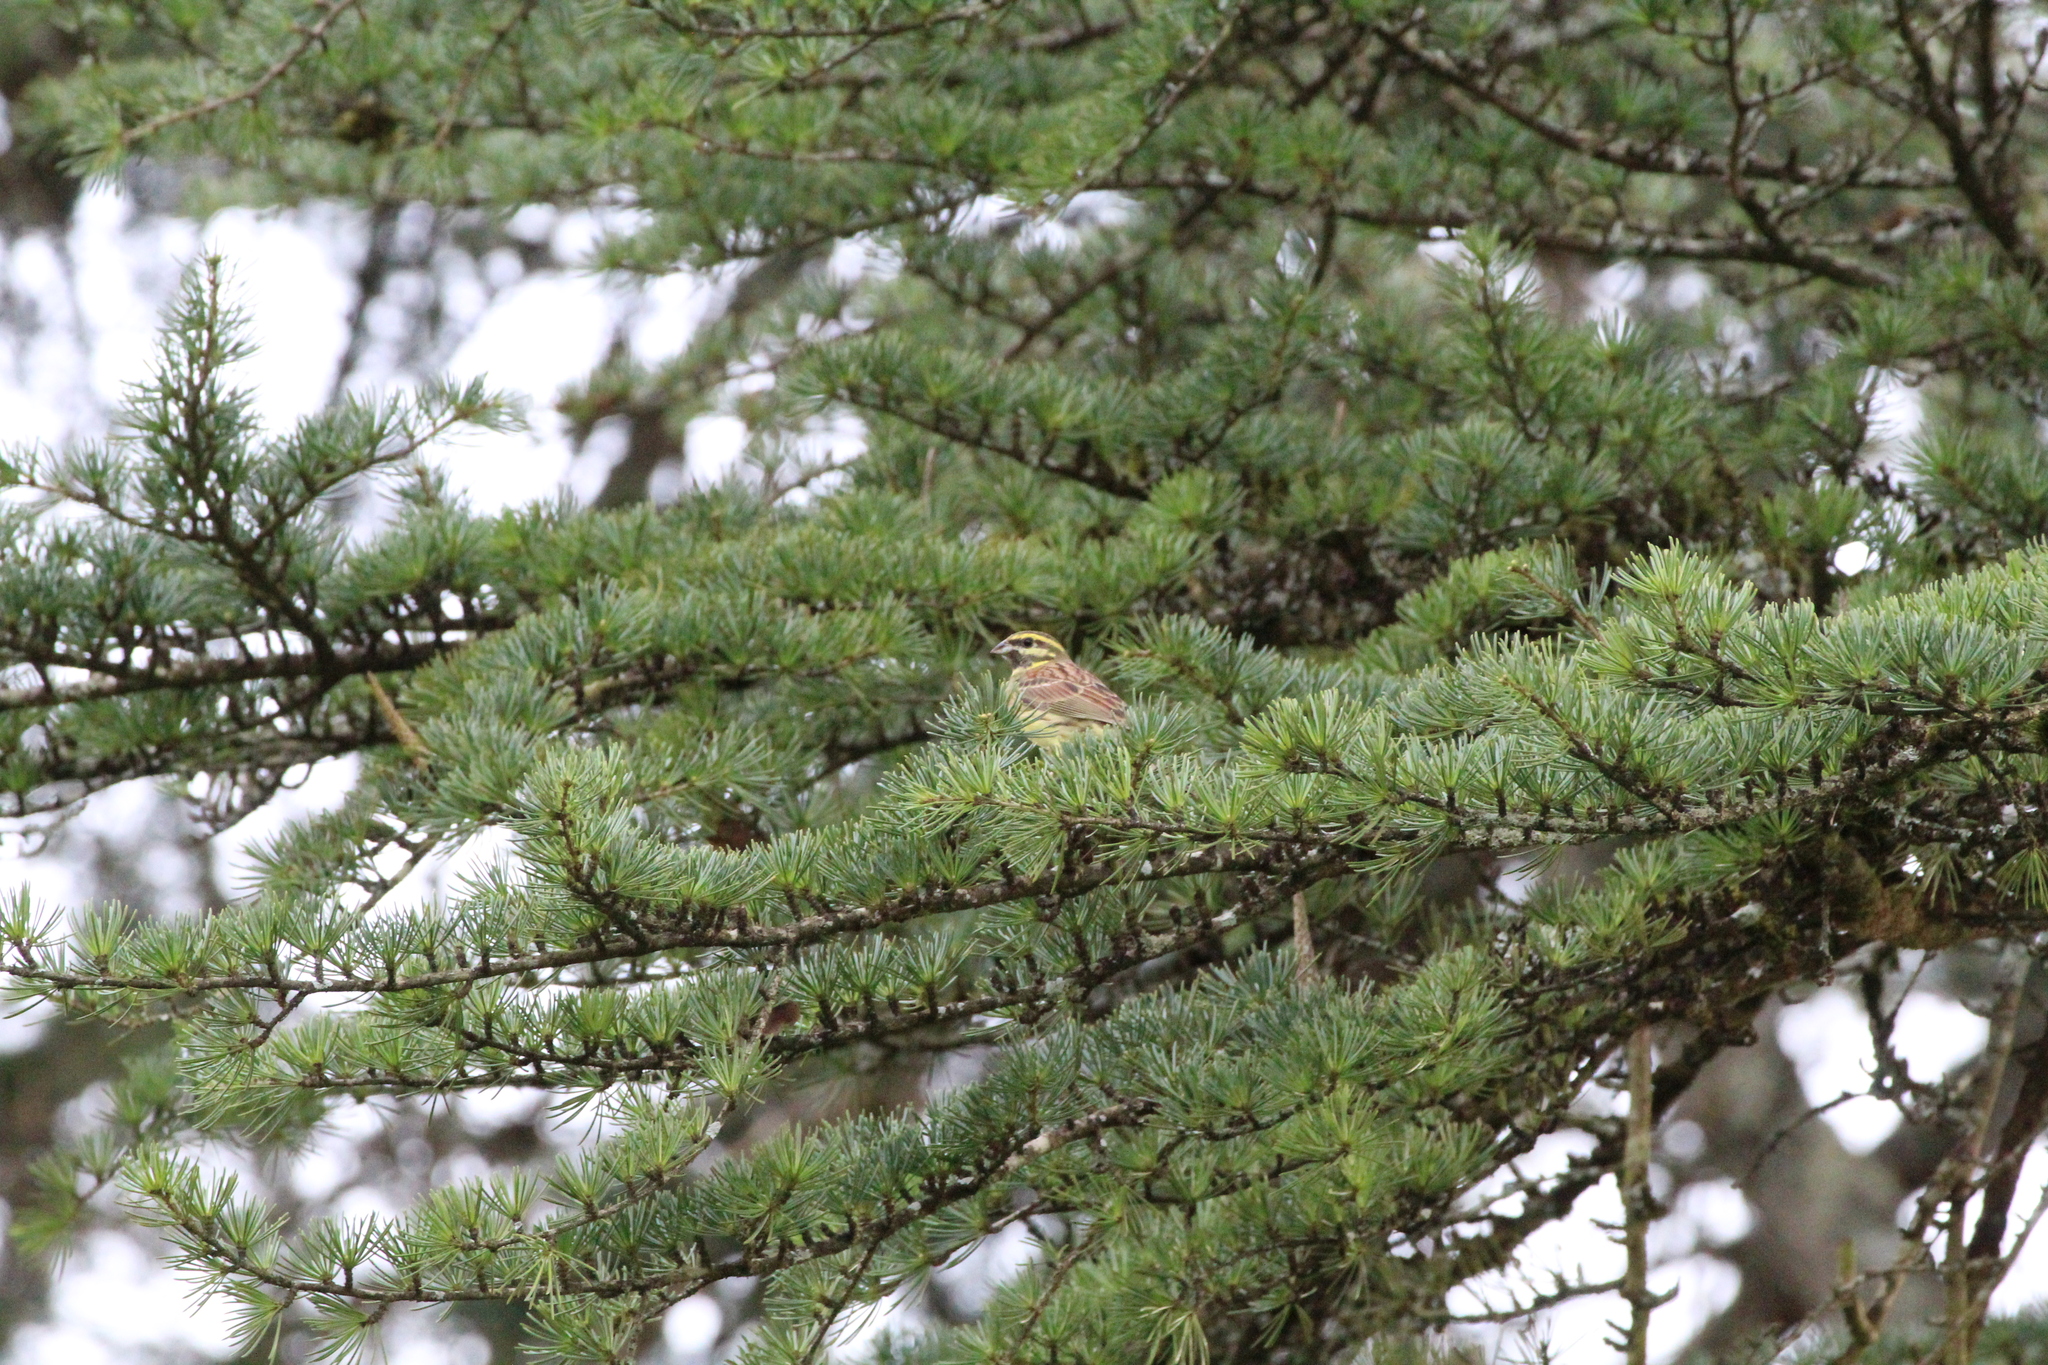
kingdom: Animalia
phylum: Chordata
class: Aves
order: Passeriformes
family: Emberizidae
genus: Emberiza
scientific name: Emberiza cirlus
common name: Cirl bunting
